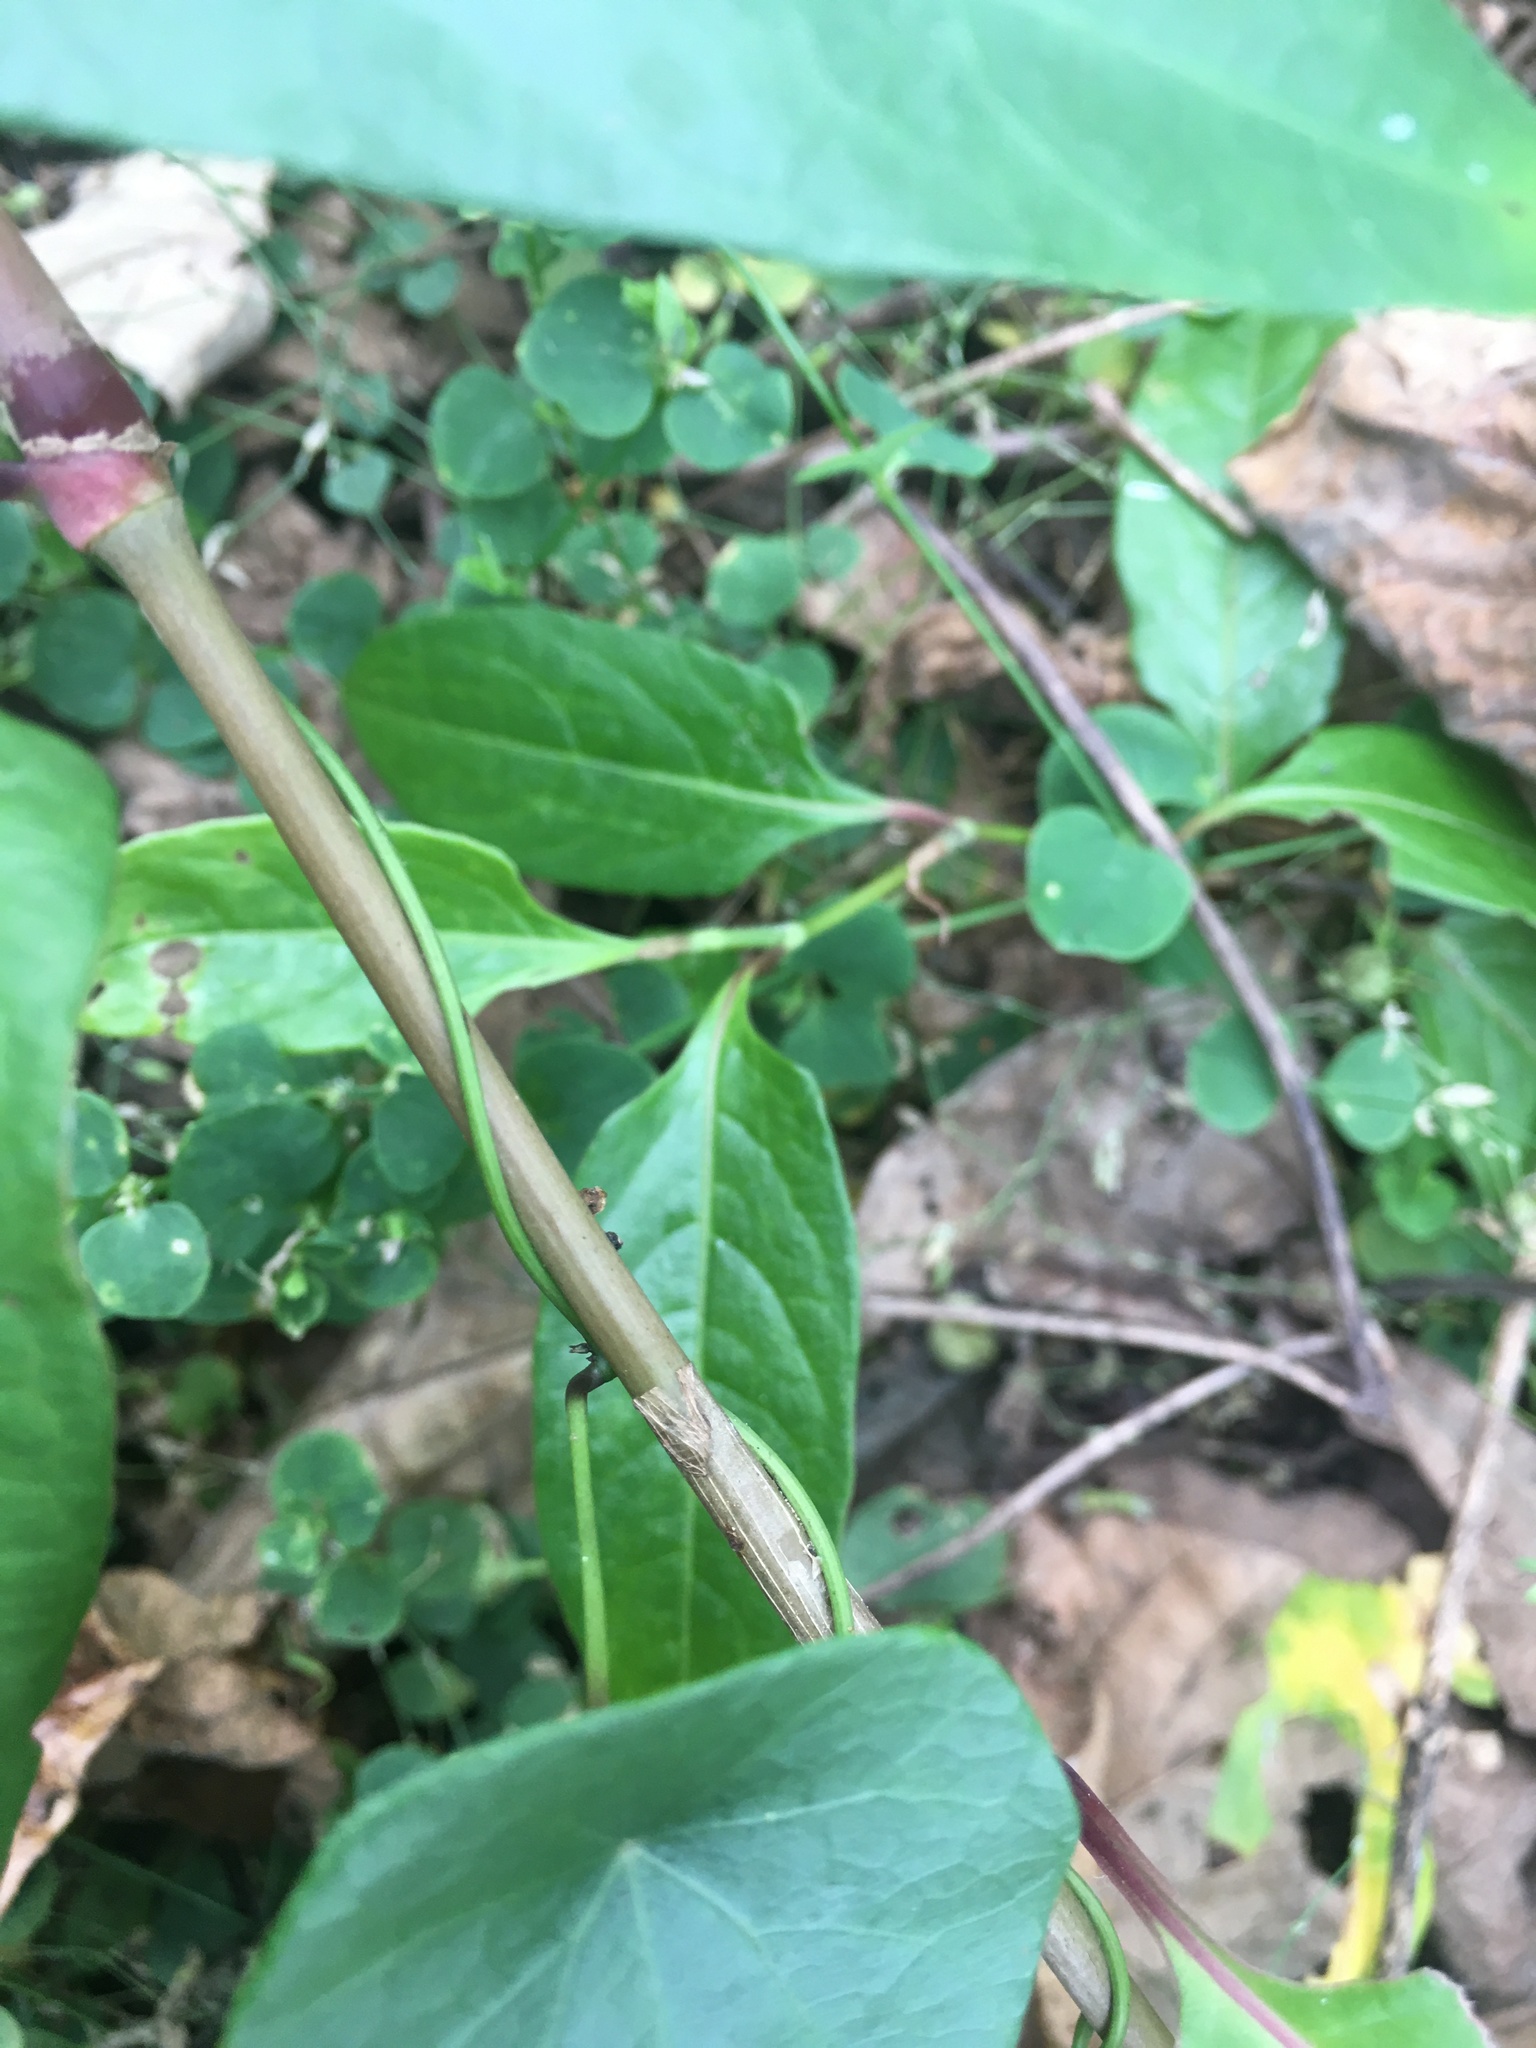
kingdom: Plantae
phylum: Tracheophyta
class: Magnoliopsida
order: Ranunculales
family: Menispermaceae
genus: Stephania
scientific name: Stephania japonica
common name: Snake vine
